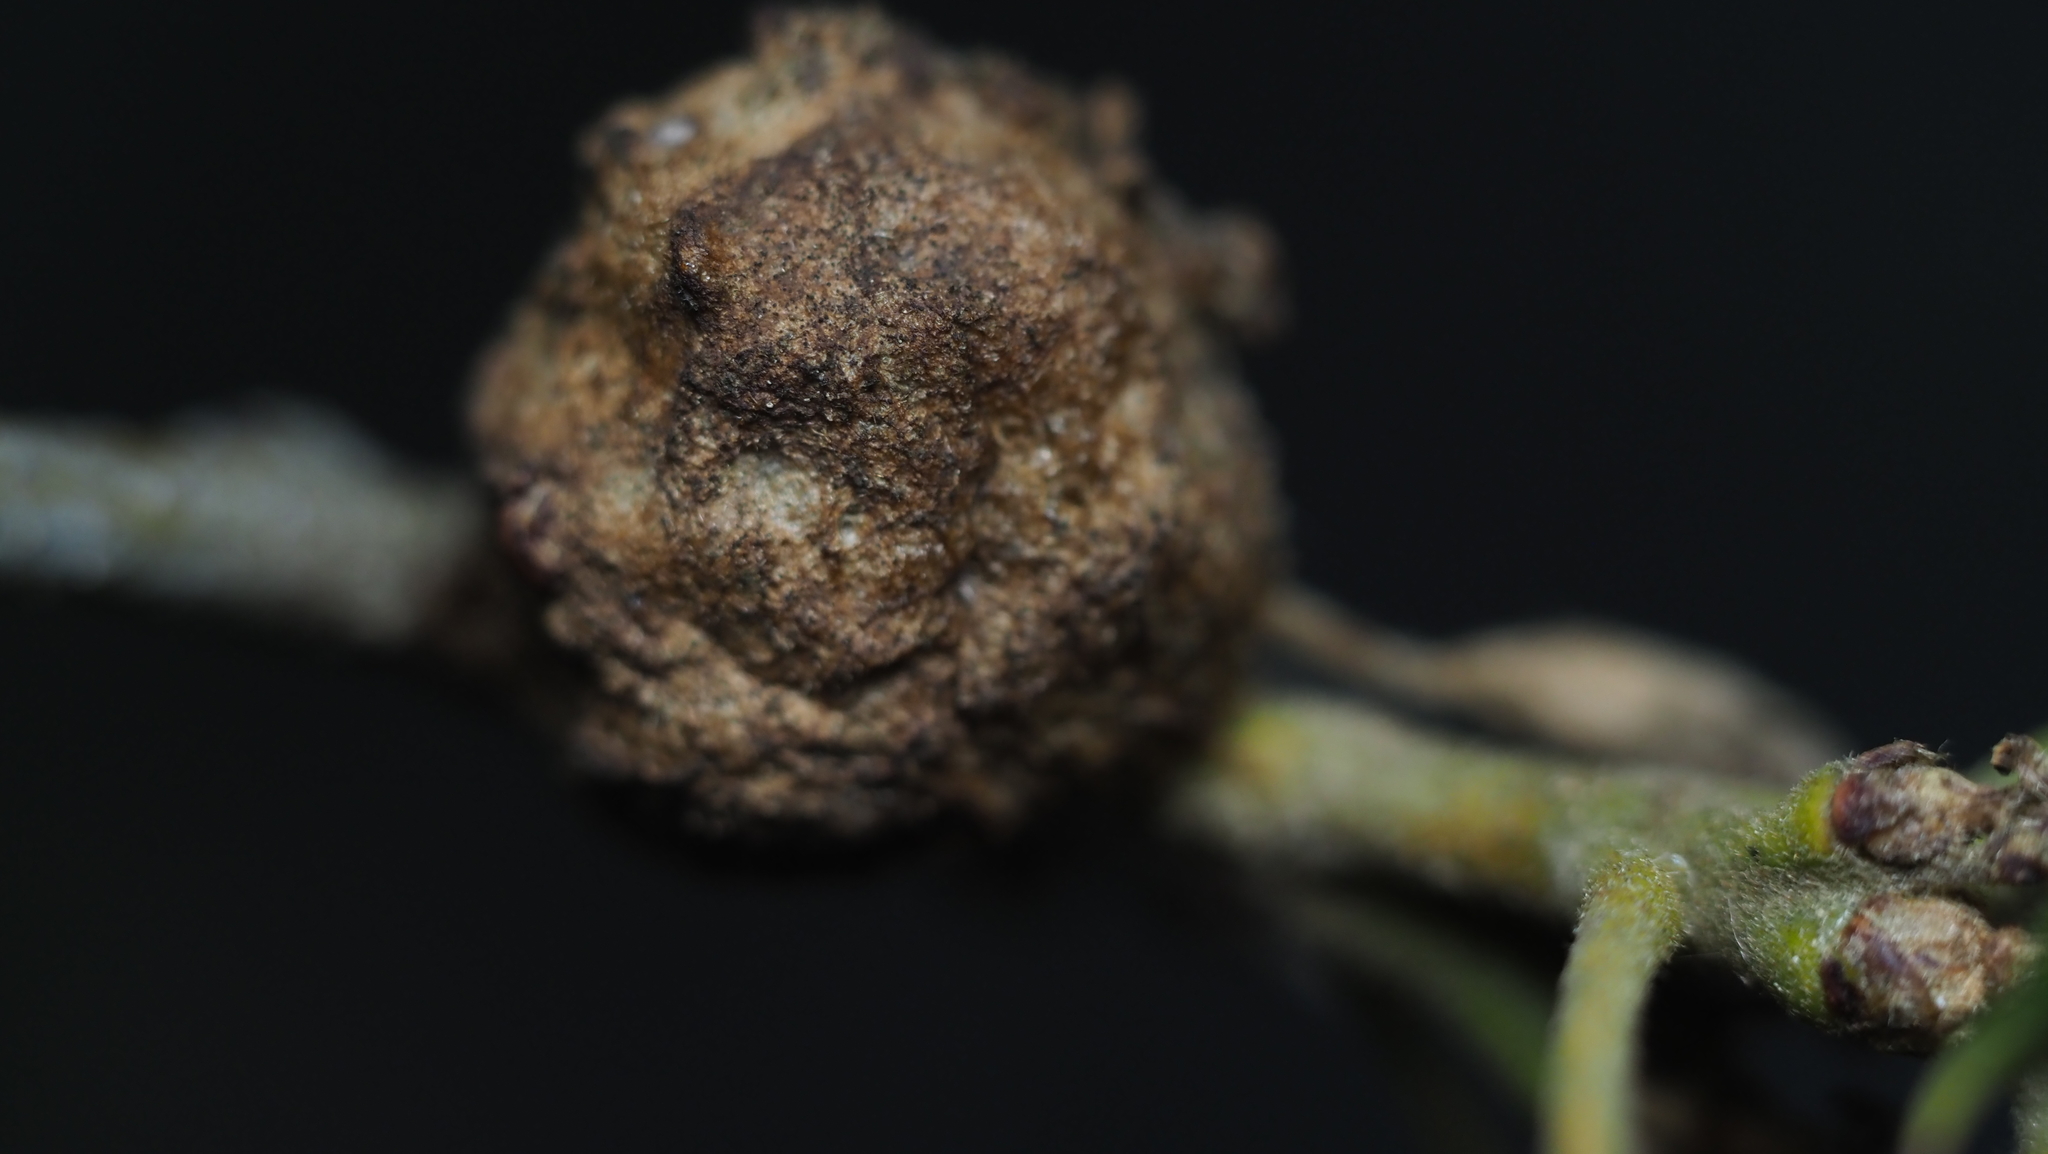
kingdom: Animalia
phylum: Arthropoda
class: Insecta
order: Hymenoptera
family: Cynipidae
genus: Callirhytis
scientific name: Callirhytis
